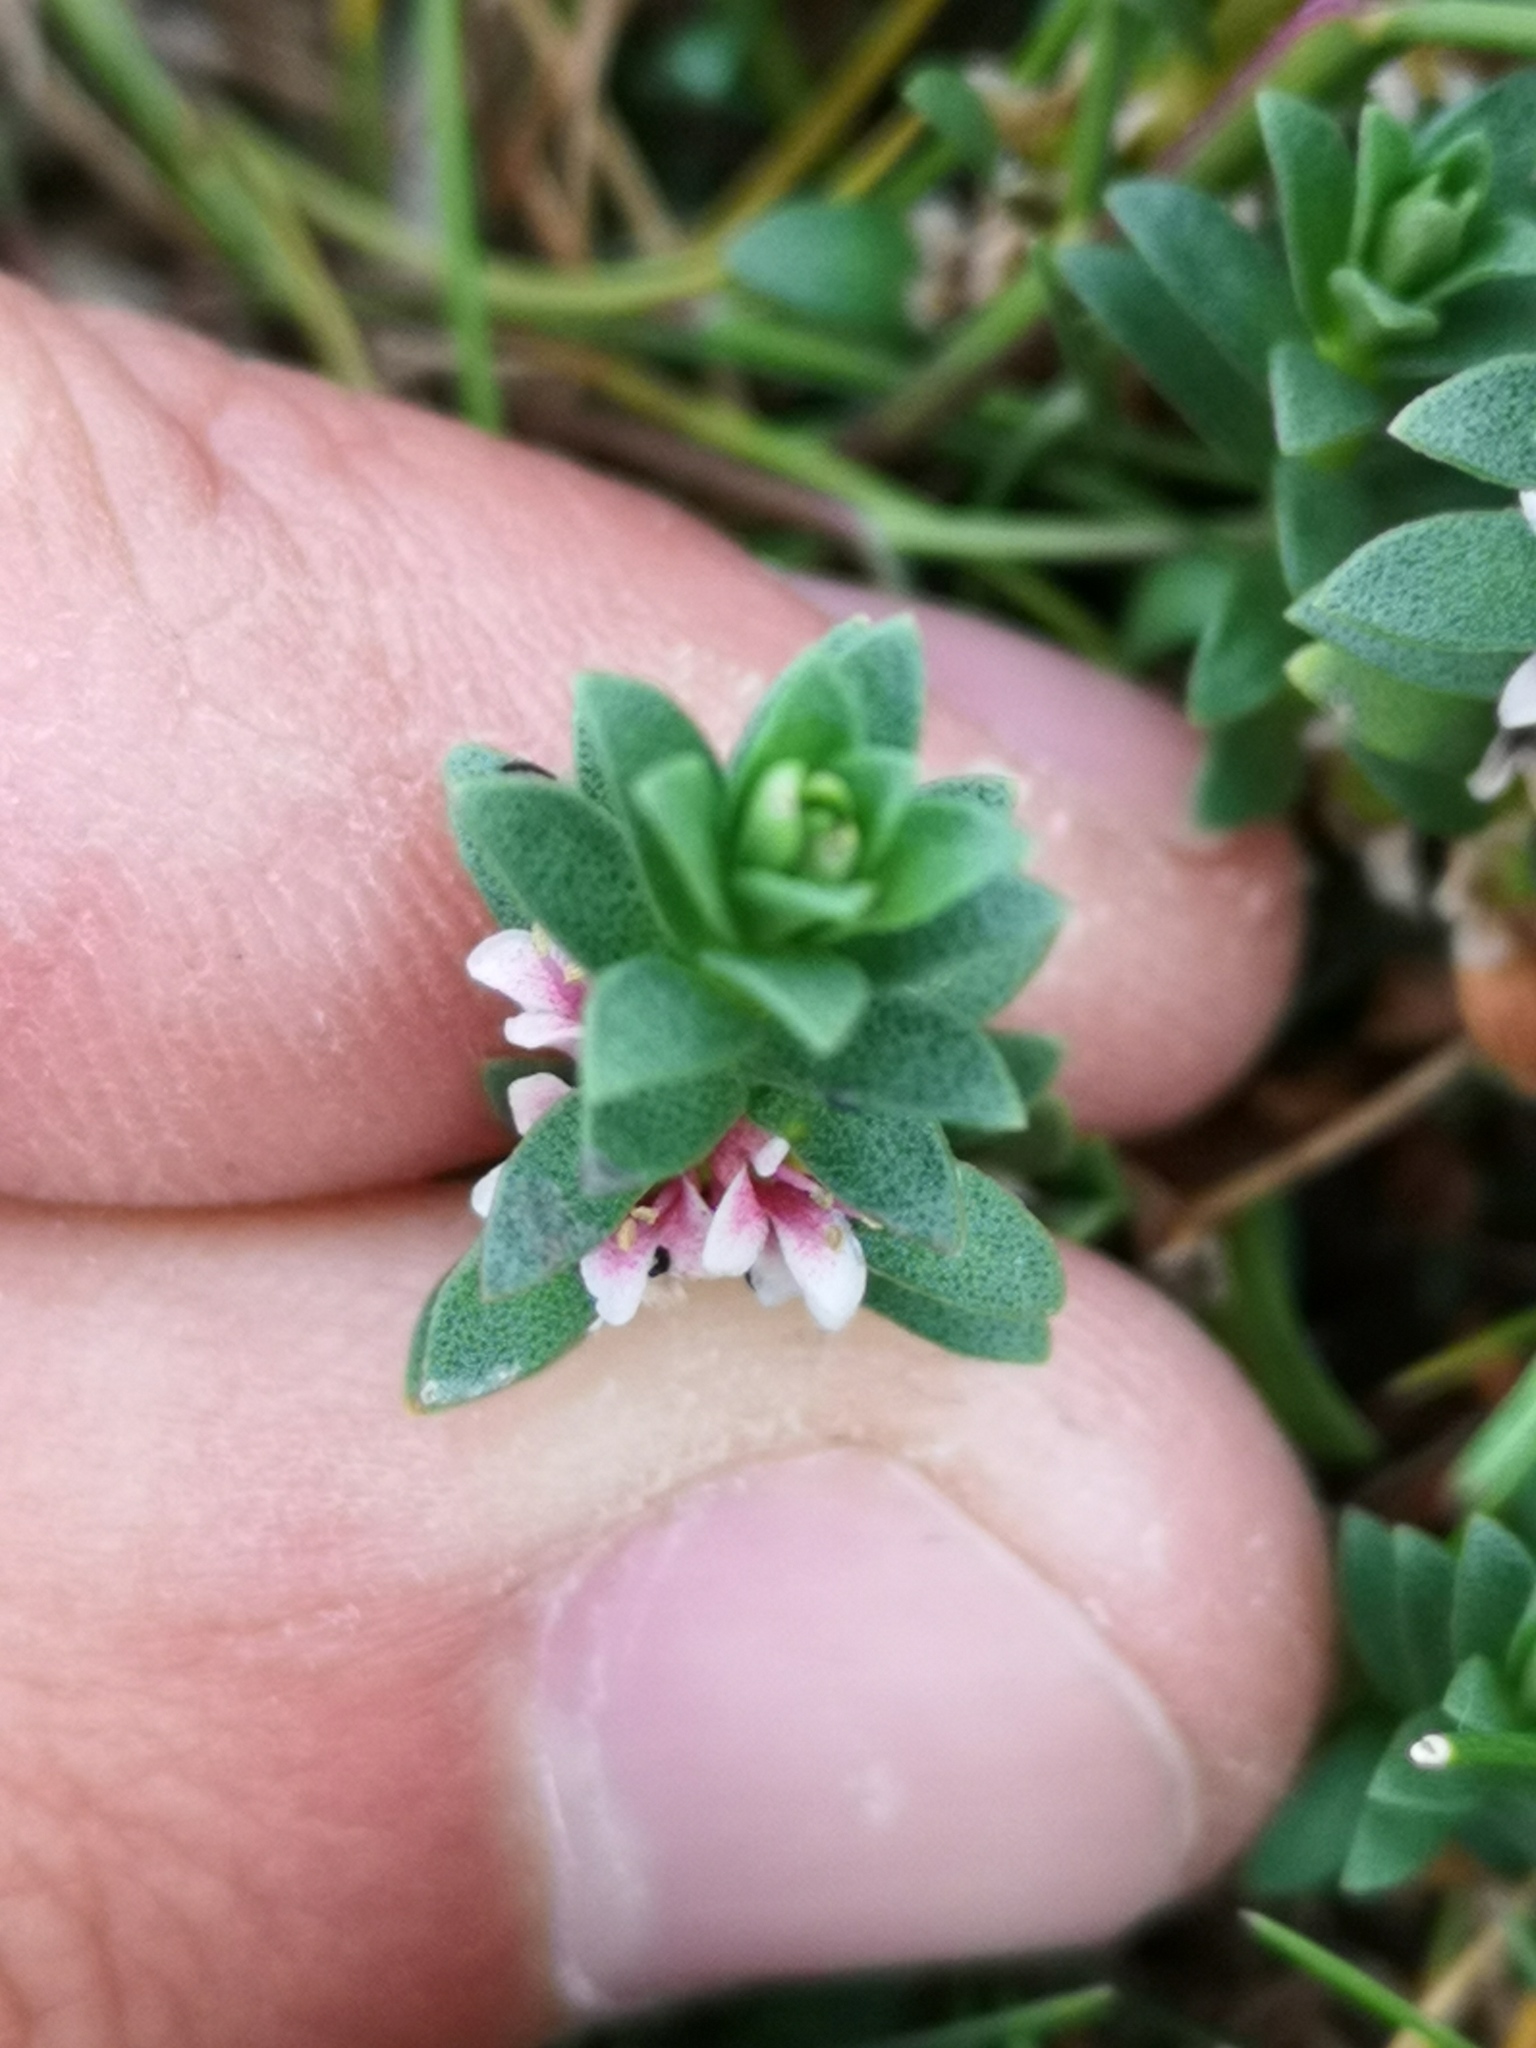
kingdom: Plantae
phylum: Tracheophyta
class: Magnoliopsida
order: Ericales
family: Primulaceae
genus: Lysimachia
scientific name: Lysimachia maritima
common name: Sea milkwort
